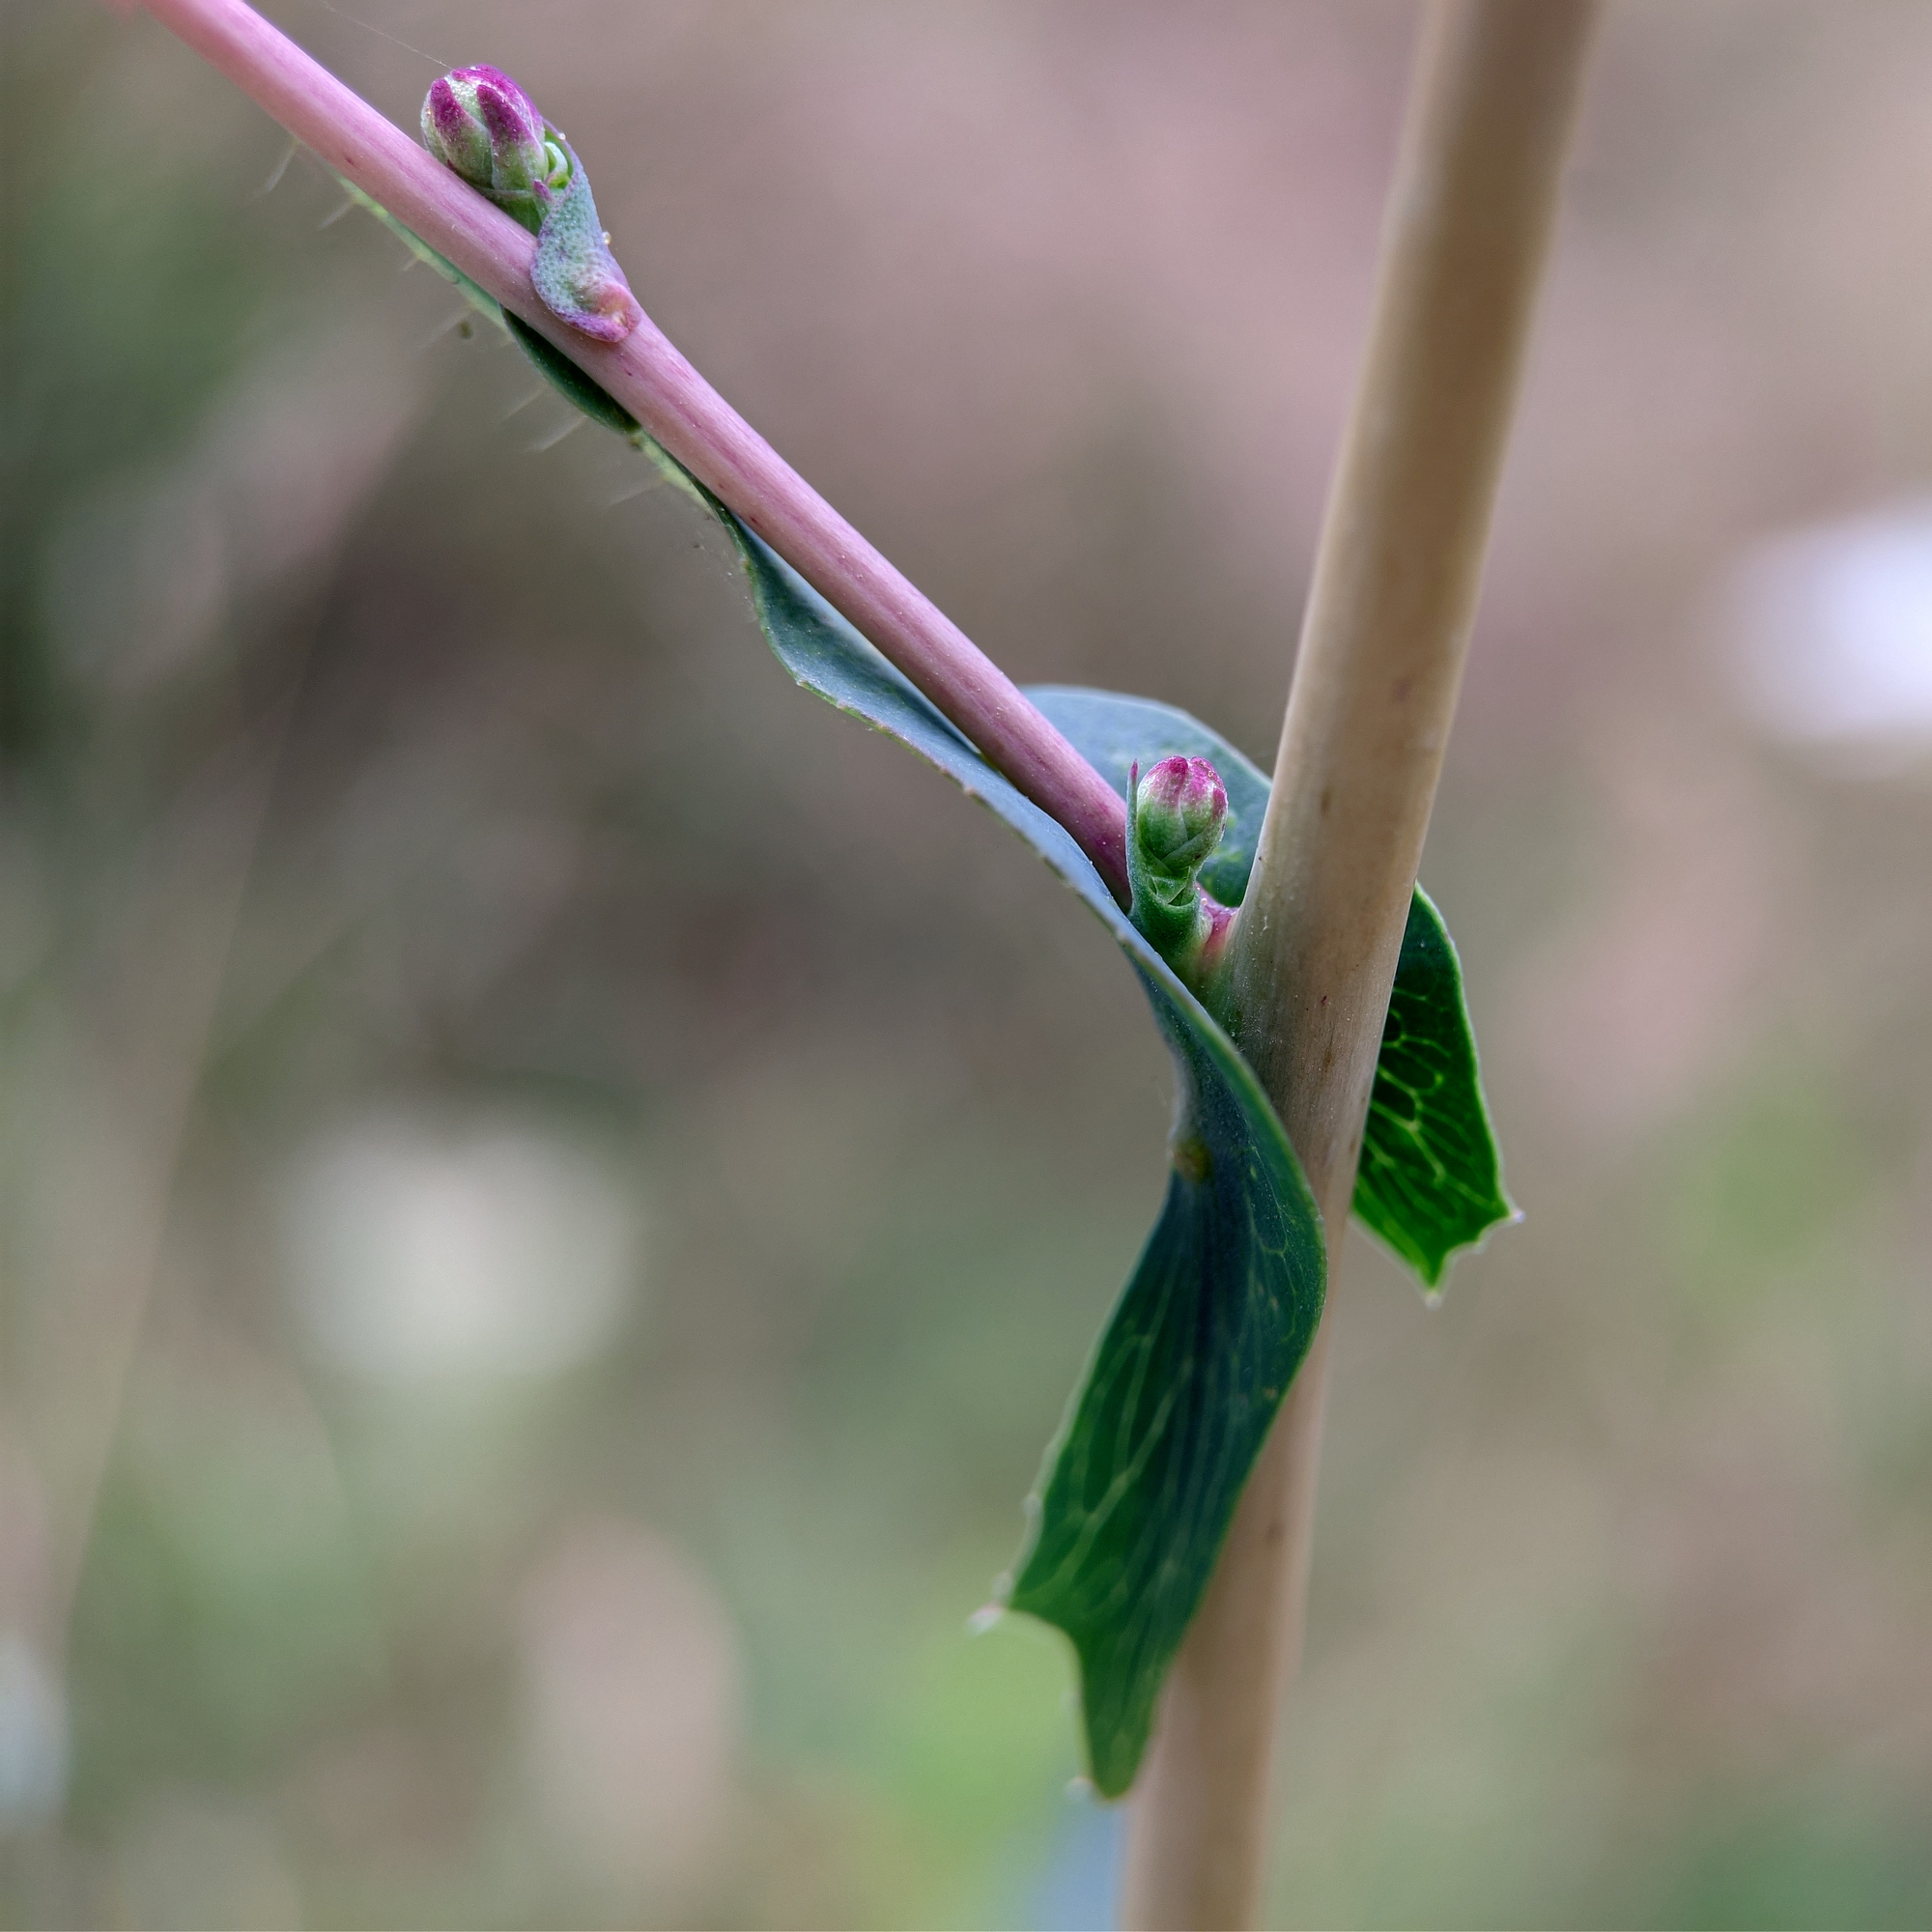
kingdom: Plantae
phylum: Tracheophyta
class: Magnoliopsida
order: Asterales
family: Asteraceae
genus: Lactuca
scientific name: Lactuca serriola
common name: Prickly lettuce
